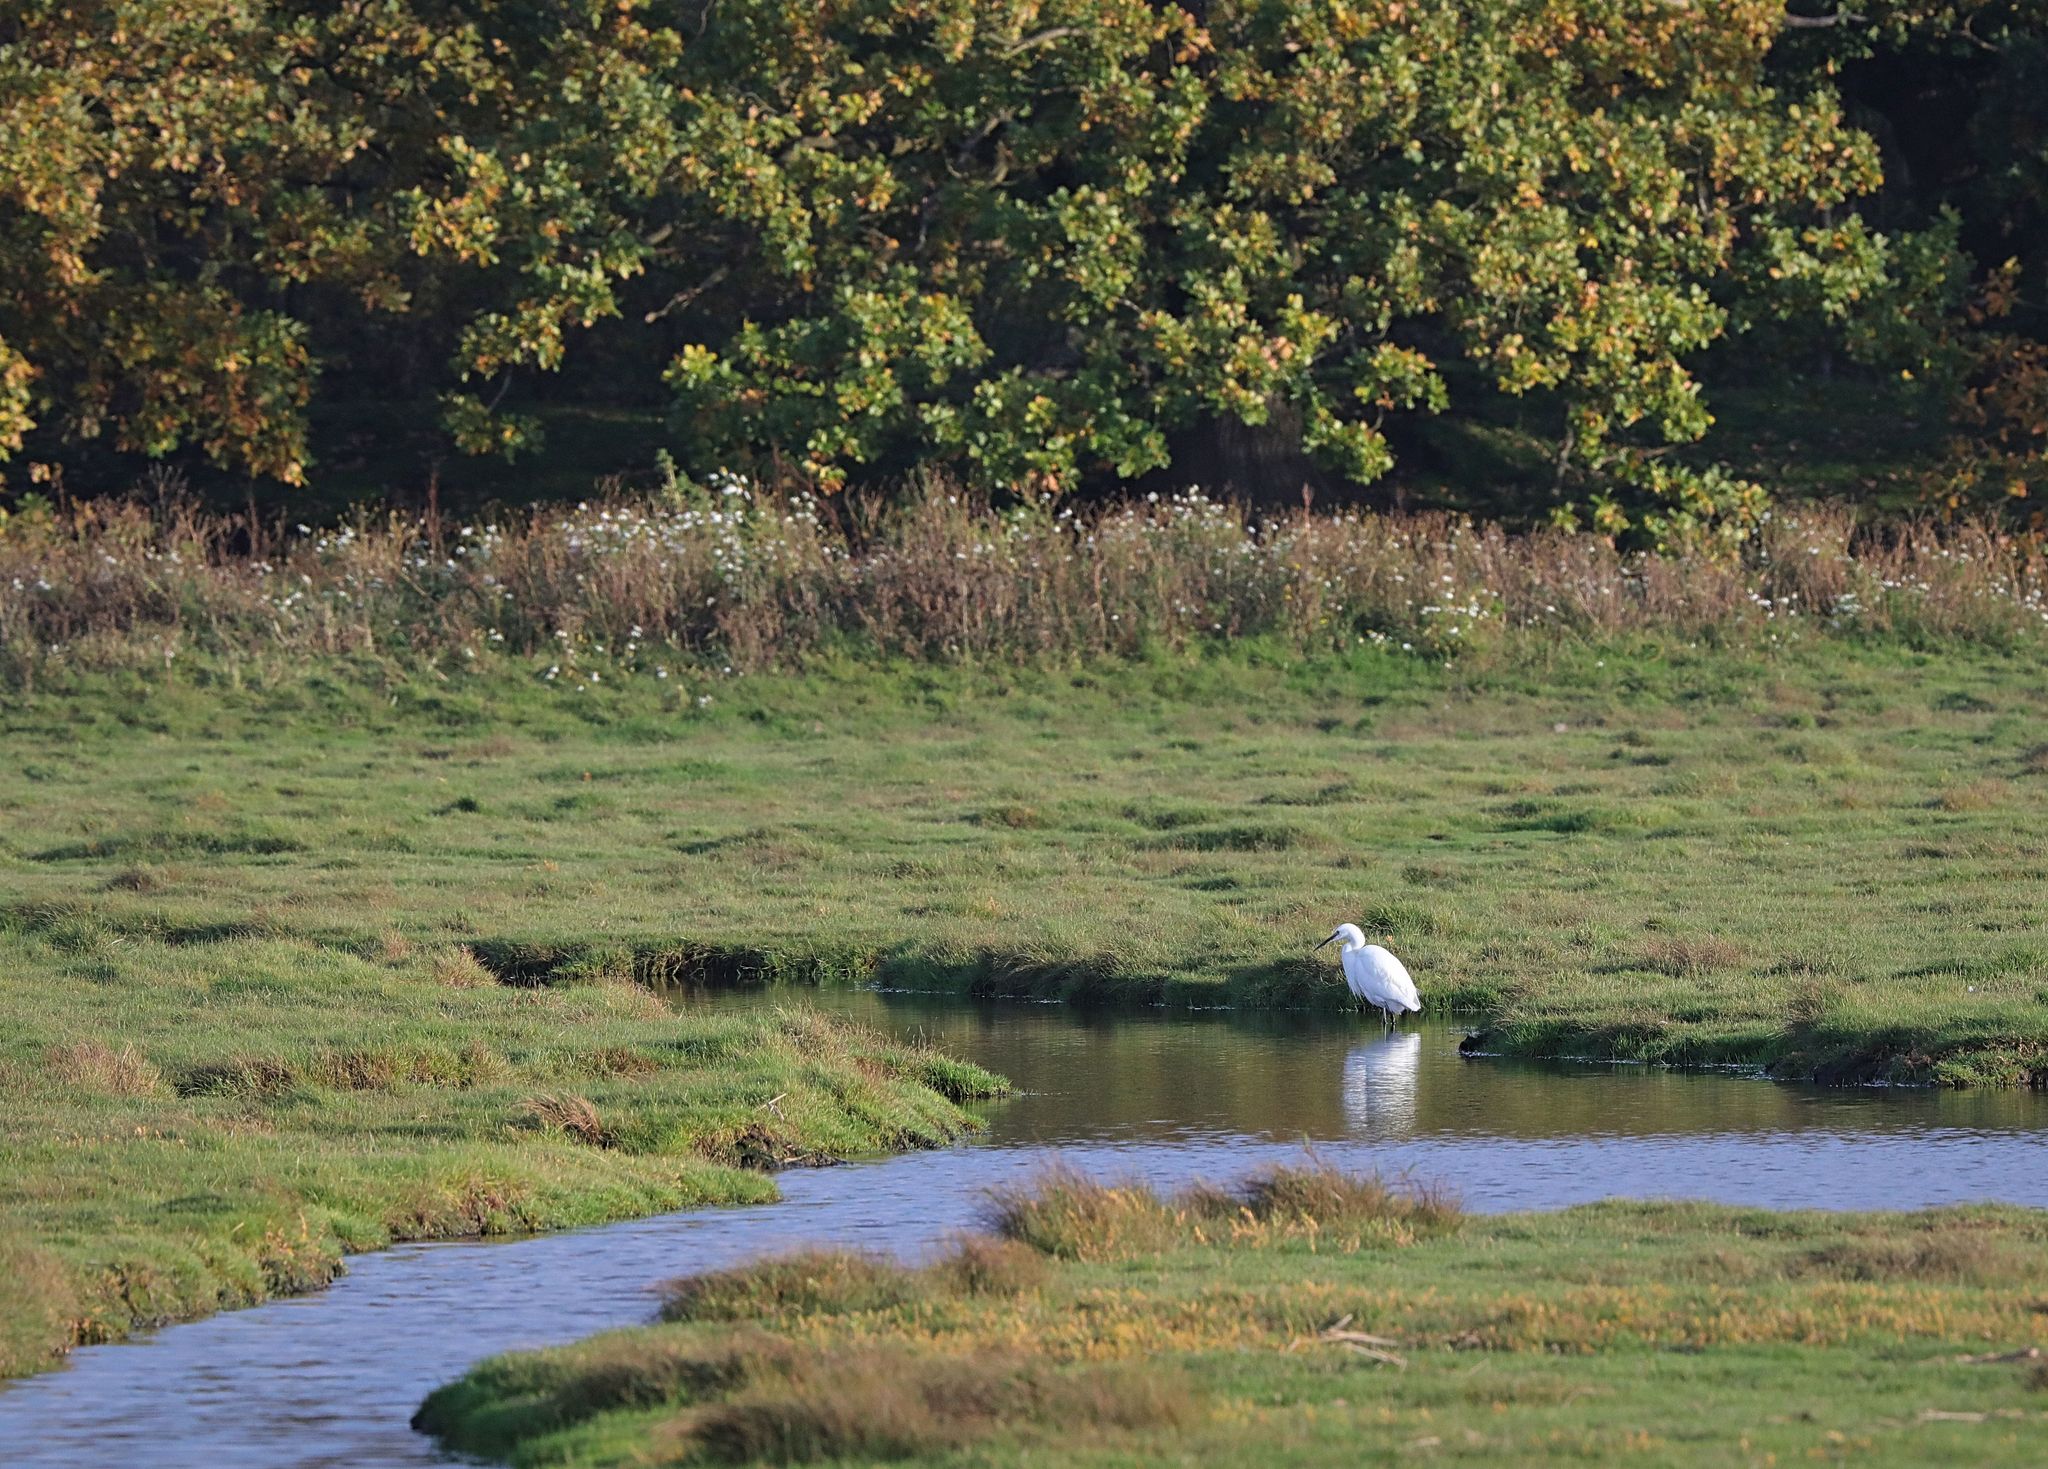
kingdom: Animalia
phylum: Chordata
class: Aves
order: Pelecaniformes
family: Ardeidae
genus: Egretta
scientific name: Egretta garzetta
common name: Little egret
